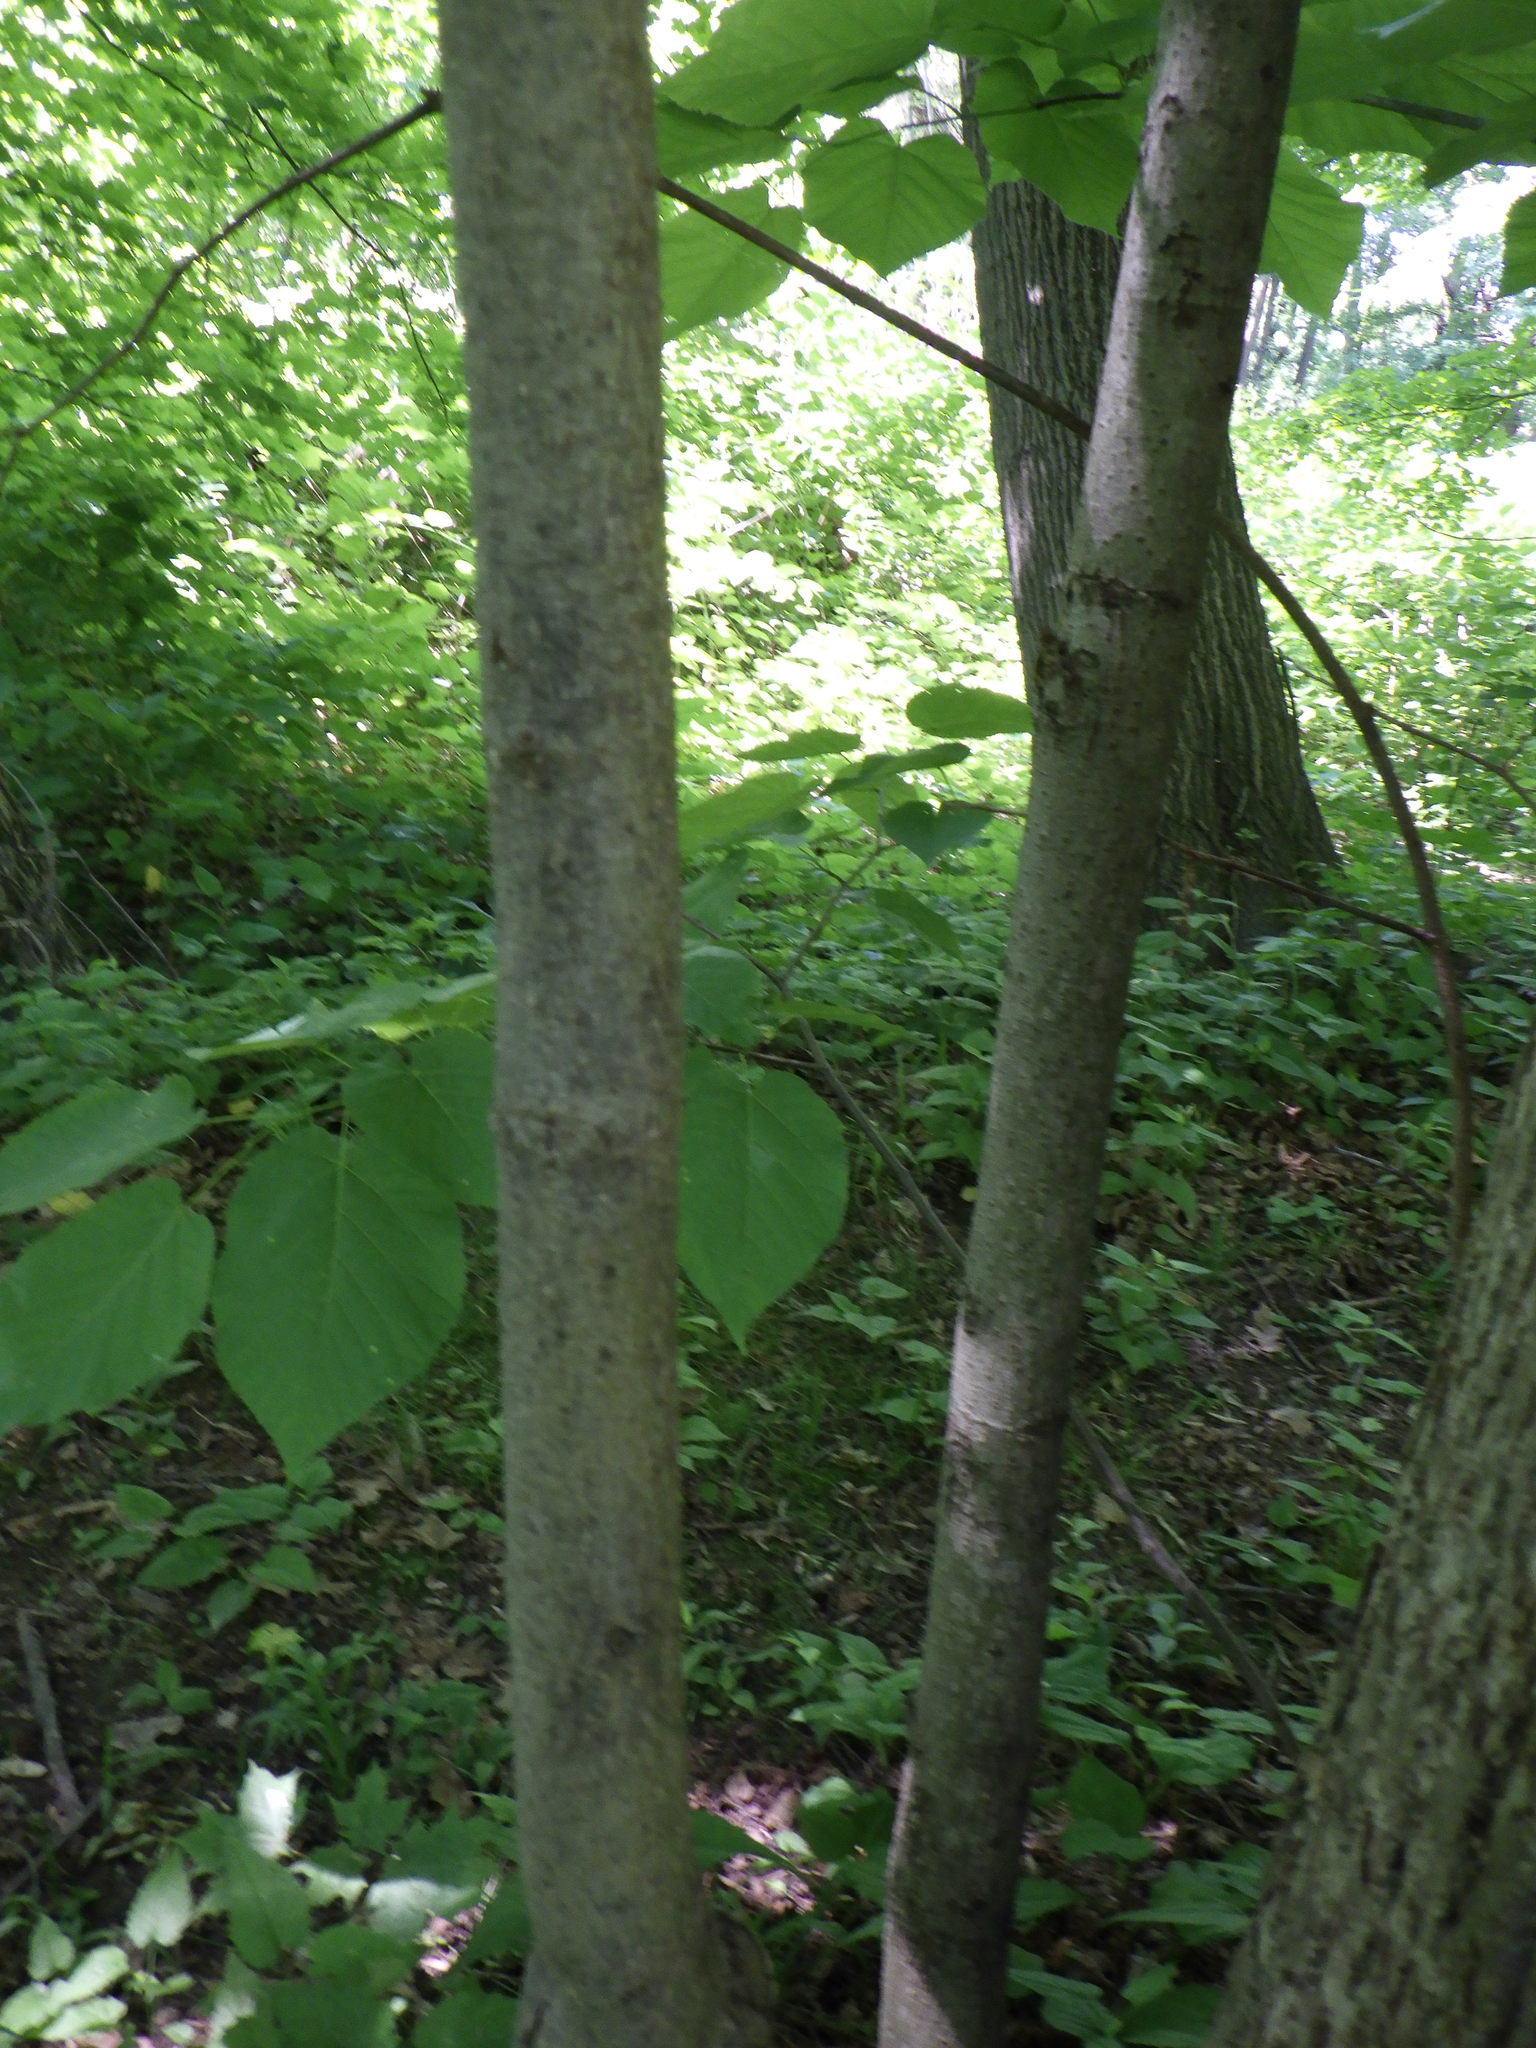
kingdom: Plantae
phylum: Tracheophyta
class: Magnoliopsida
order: Malvales
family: Malvaceae
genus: Tilia
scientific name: Tilia americana
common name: Basswood
